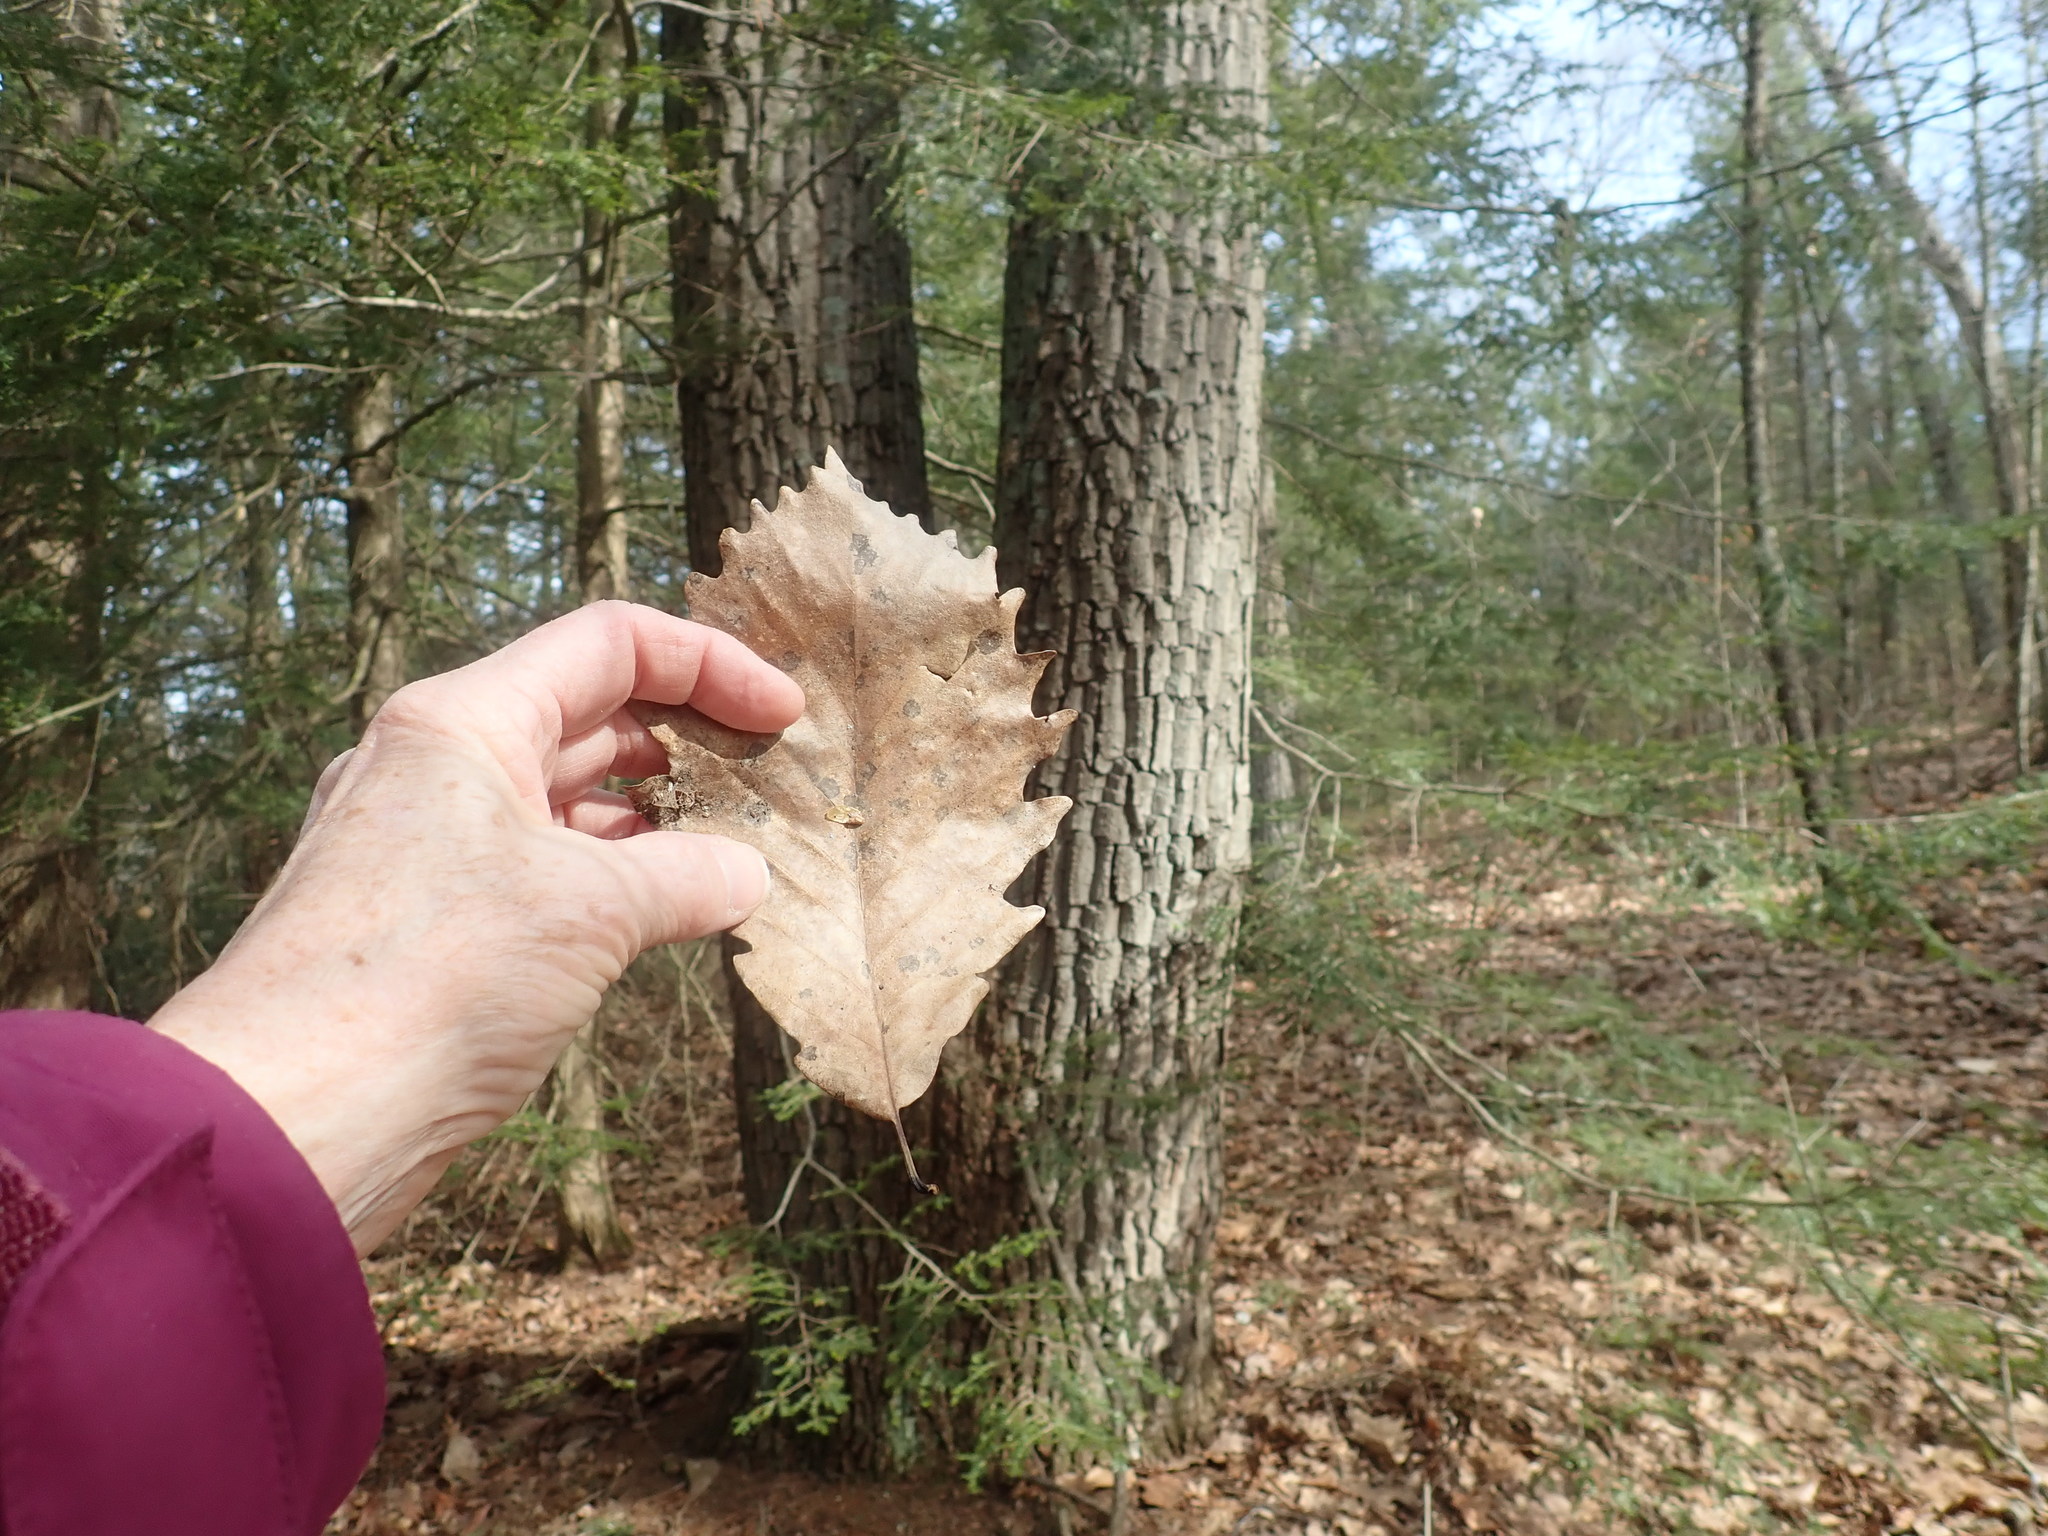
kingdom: Plantae
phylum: Tracheophyta
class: Magnoliopsida
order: Fagales
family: Fagaceae
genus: Quercus
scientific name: Quercus montana
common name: Chestnut oak
